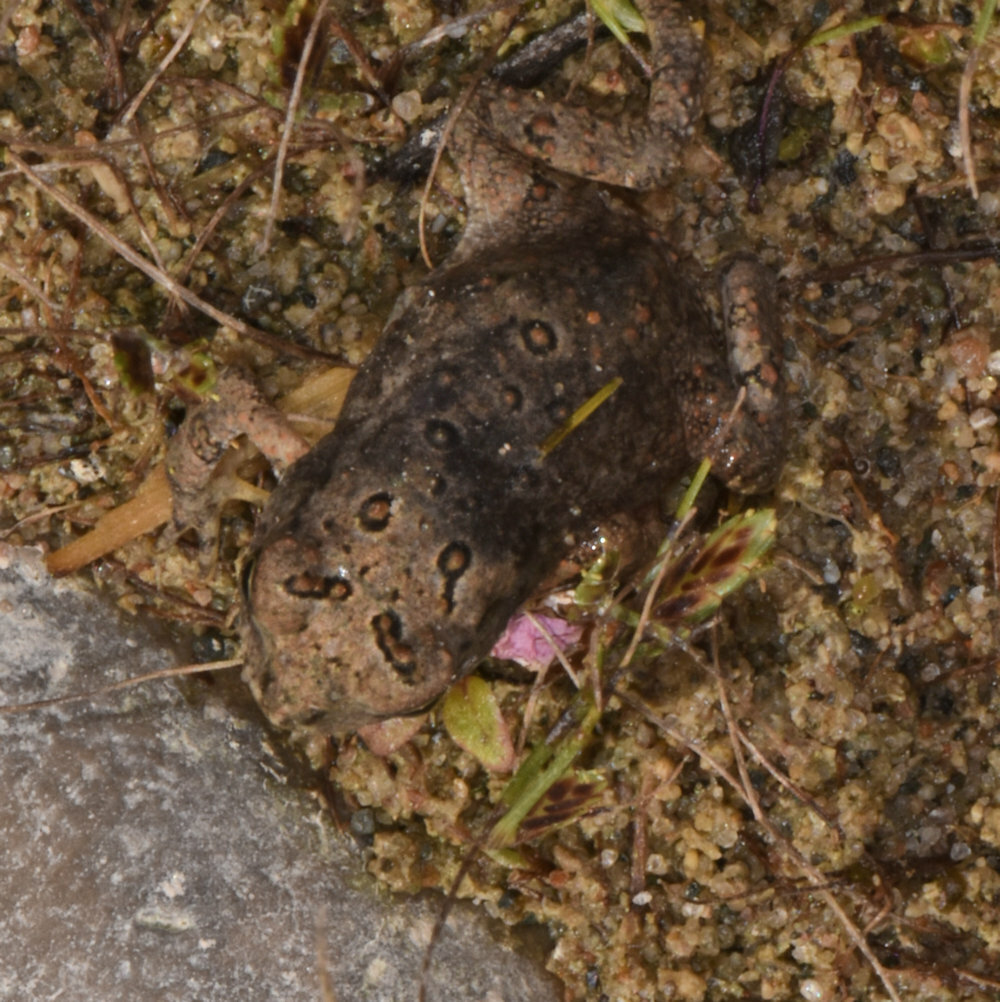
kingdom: Animalia
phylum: Chordata
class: Amphibia
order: Anura
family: Bufonidae
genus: Anaxyrus
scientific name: Anaxyrus americanus
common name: American toad
